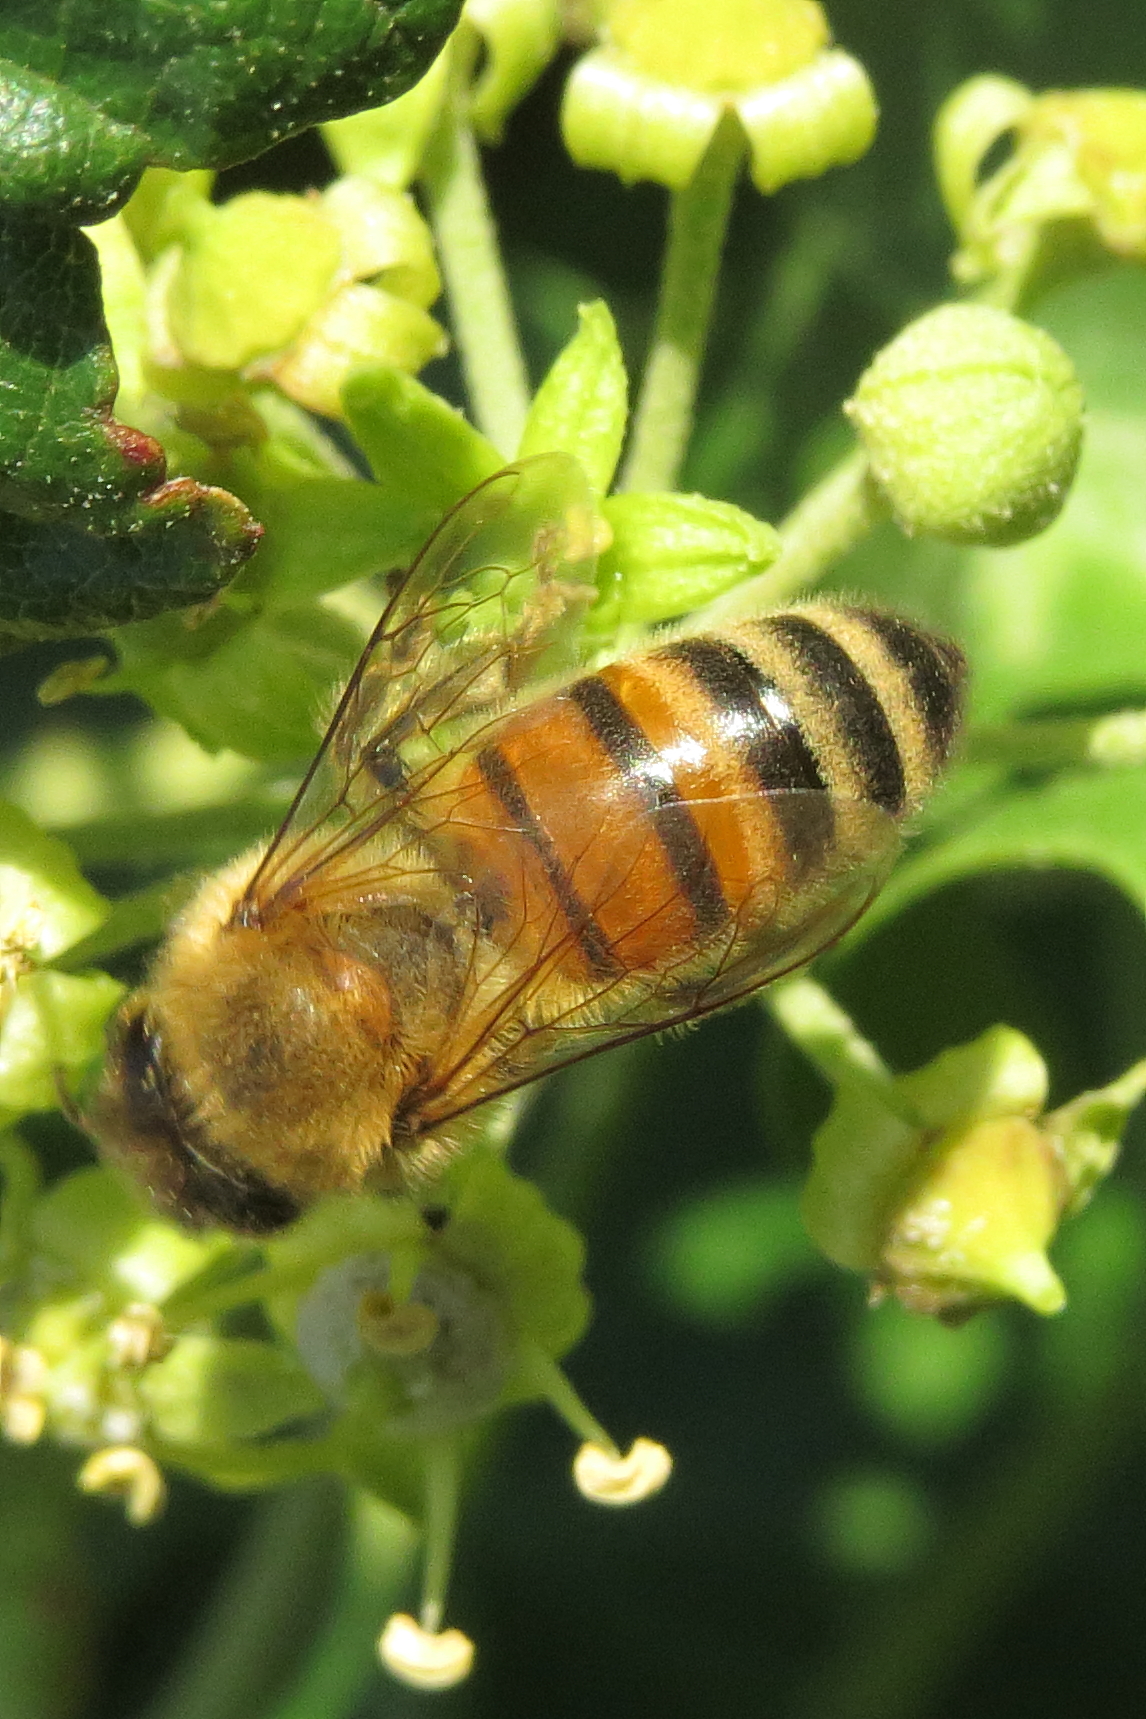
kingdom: Animalia
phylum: Arthropoda
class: Insecta
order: Hymenoptera
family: Apidae
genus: Apis
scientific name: Apis mellifera
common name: Honey bee
